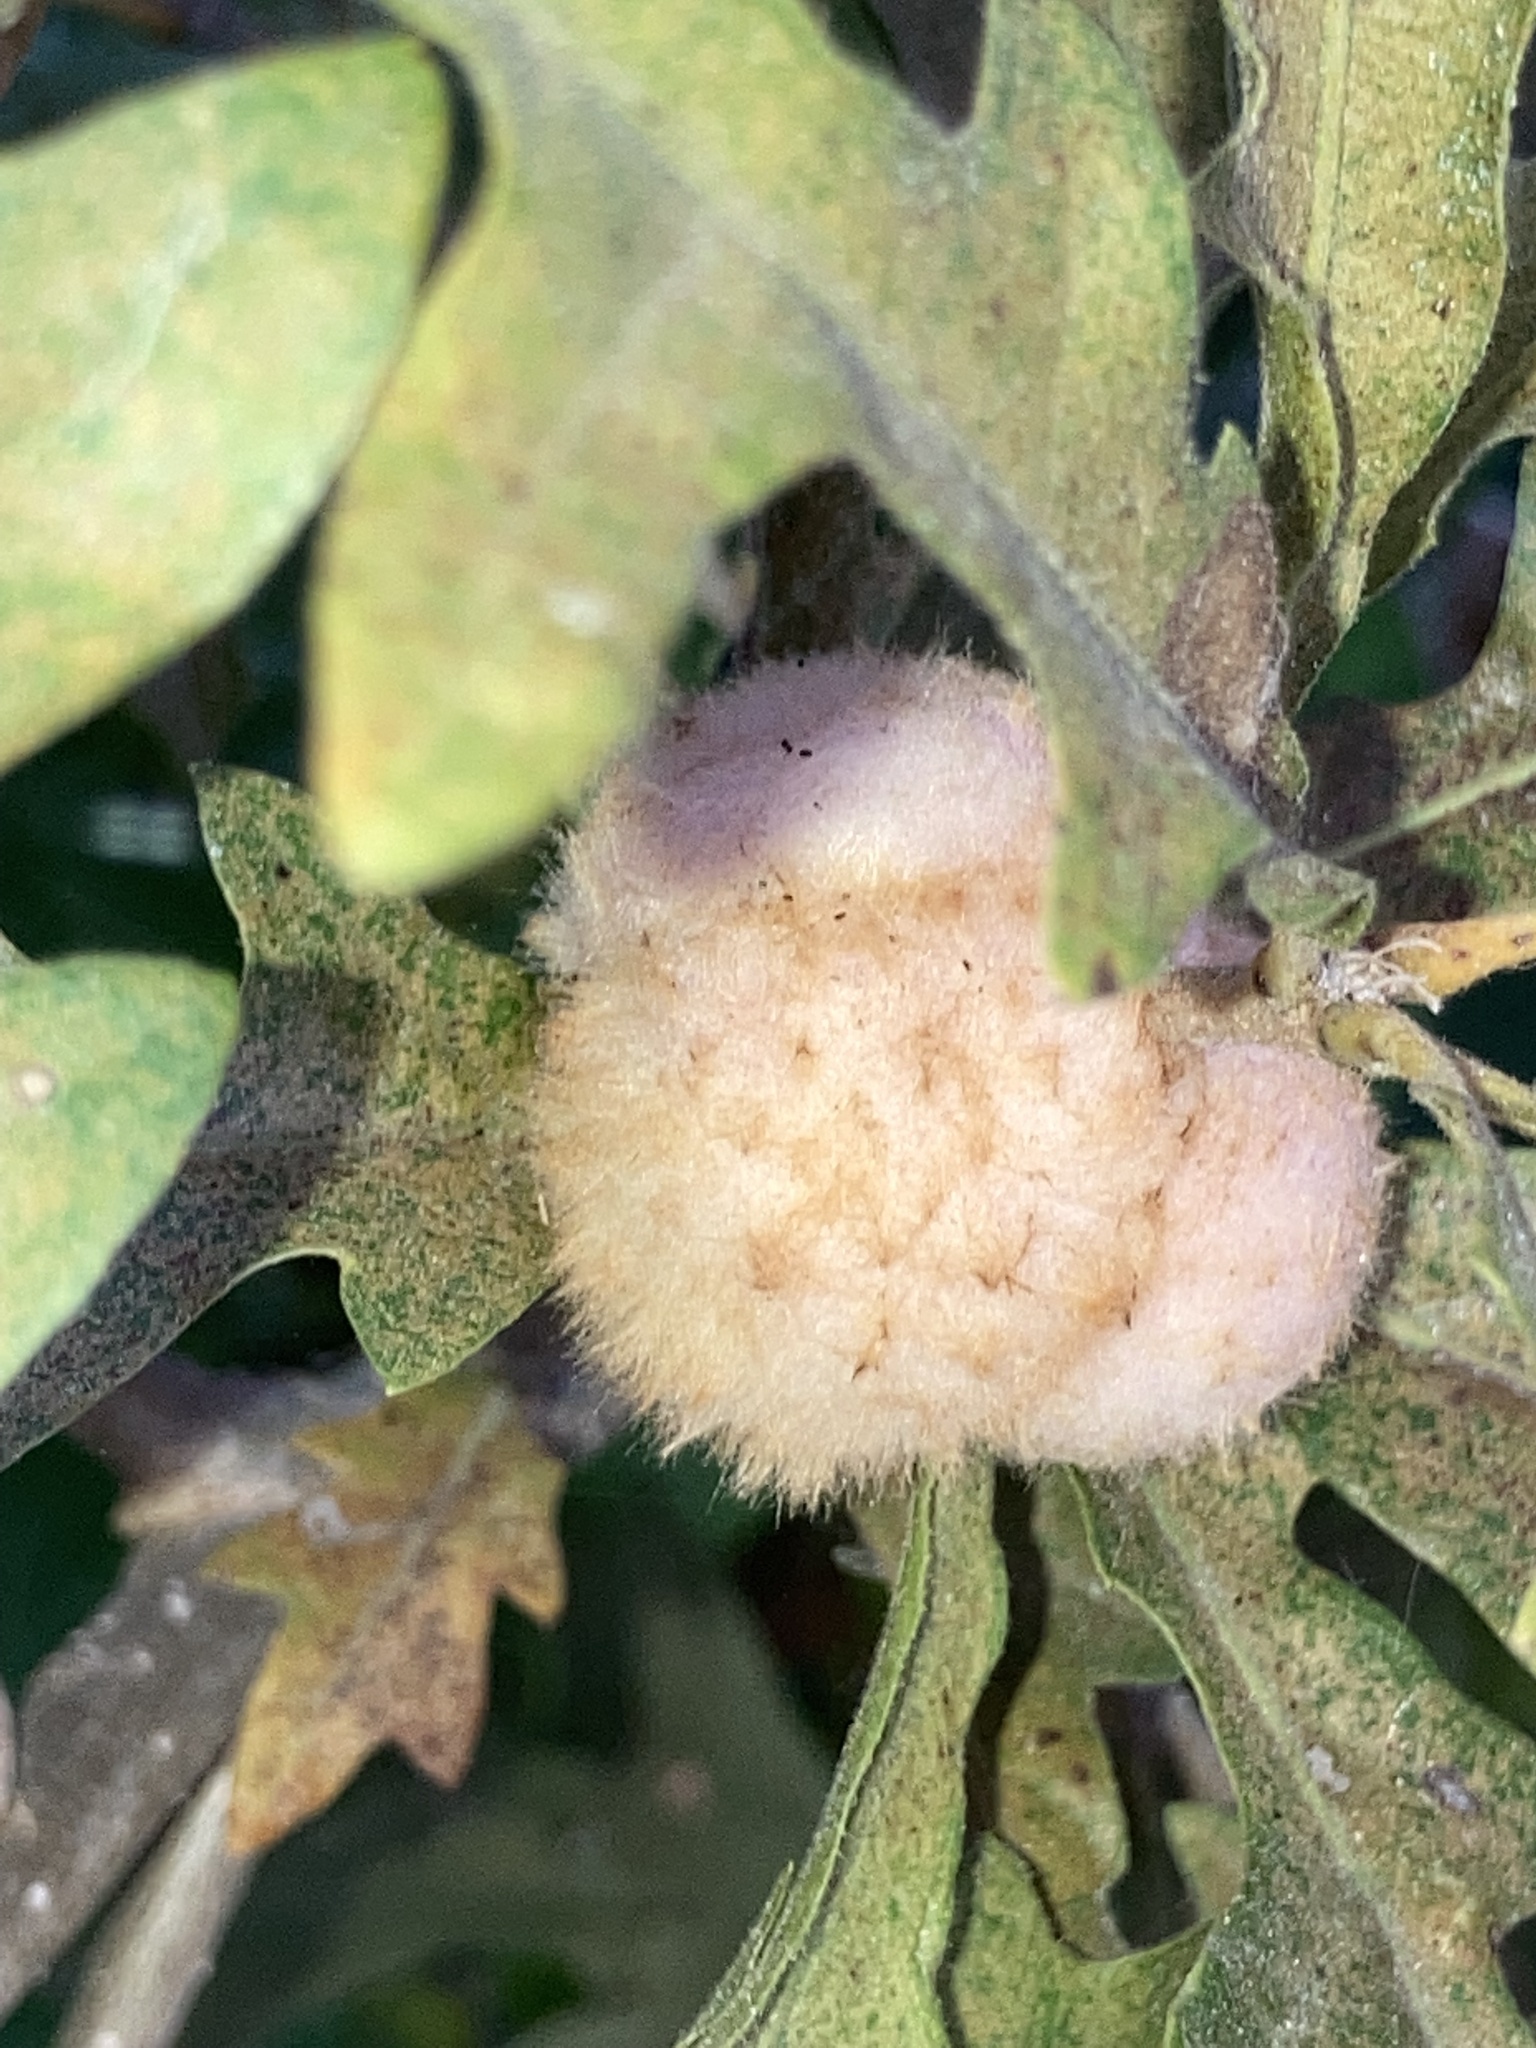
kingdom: Animalia
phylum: Arthropoda
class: Insecta
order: Hymenoptera
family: Cynipidae
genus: Striatoandricus
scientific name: Striatoandricus aciculatus
